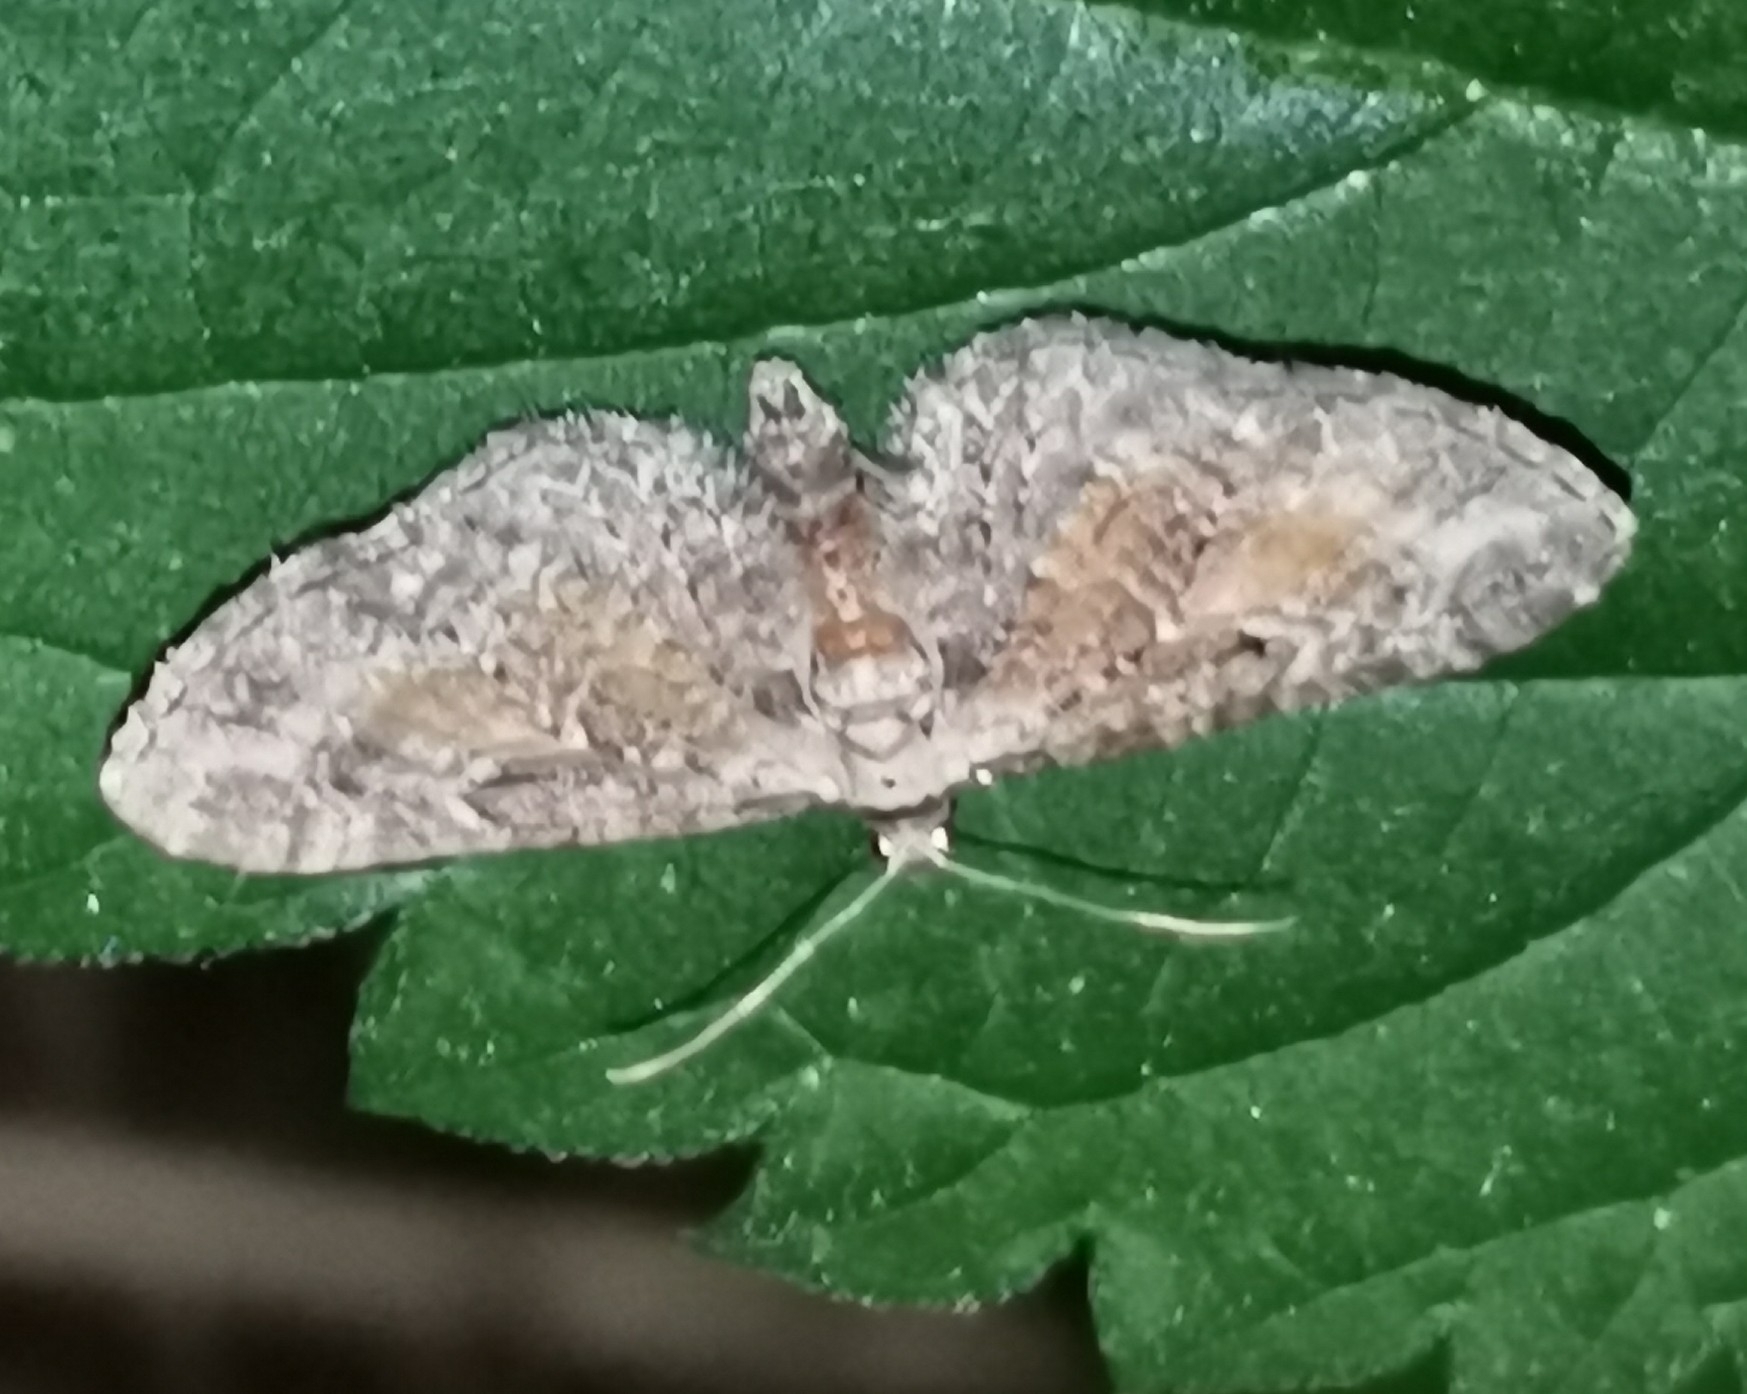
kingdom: Animalia
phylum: Arthropoda
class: Insecta
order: Lepidoptera
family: Geometridae
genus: Eupithecia
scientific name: Eupithecia icterata
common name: Tawny speckled pug
